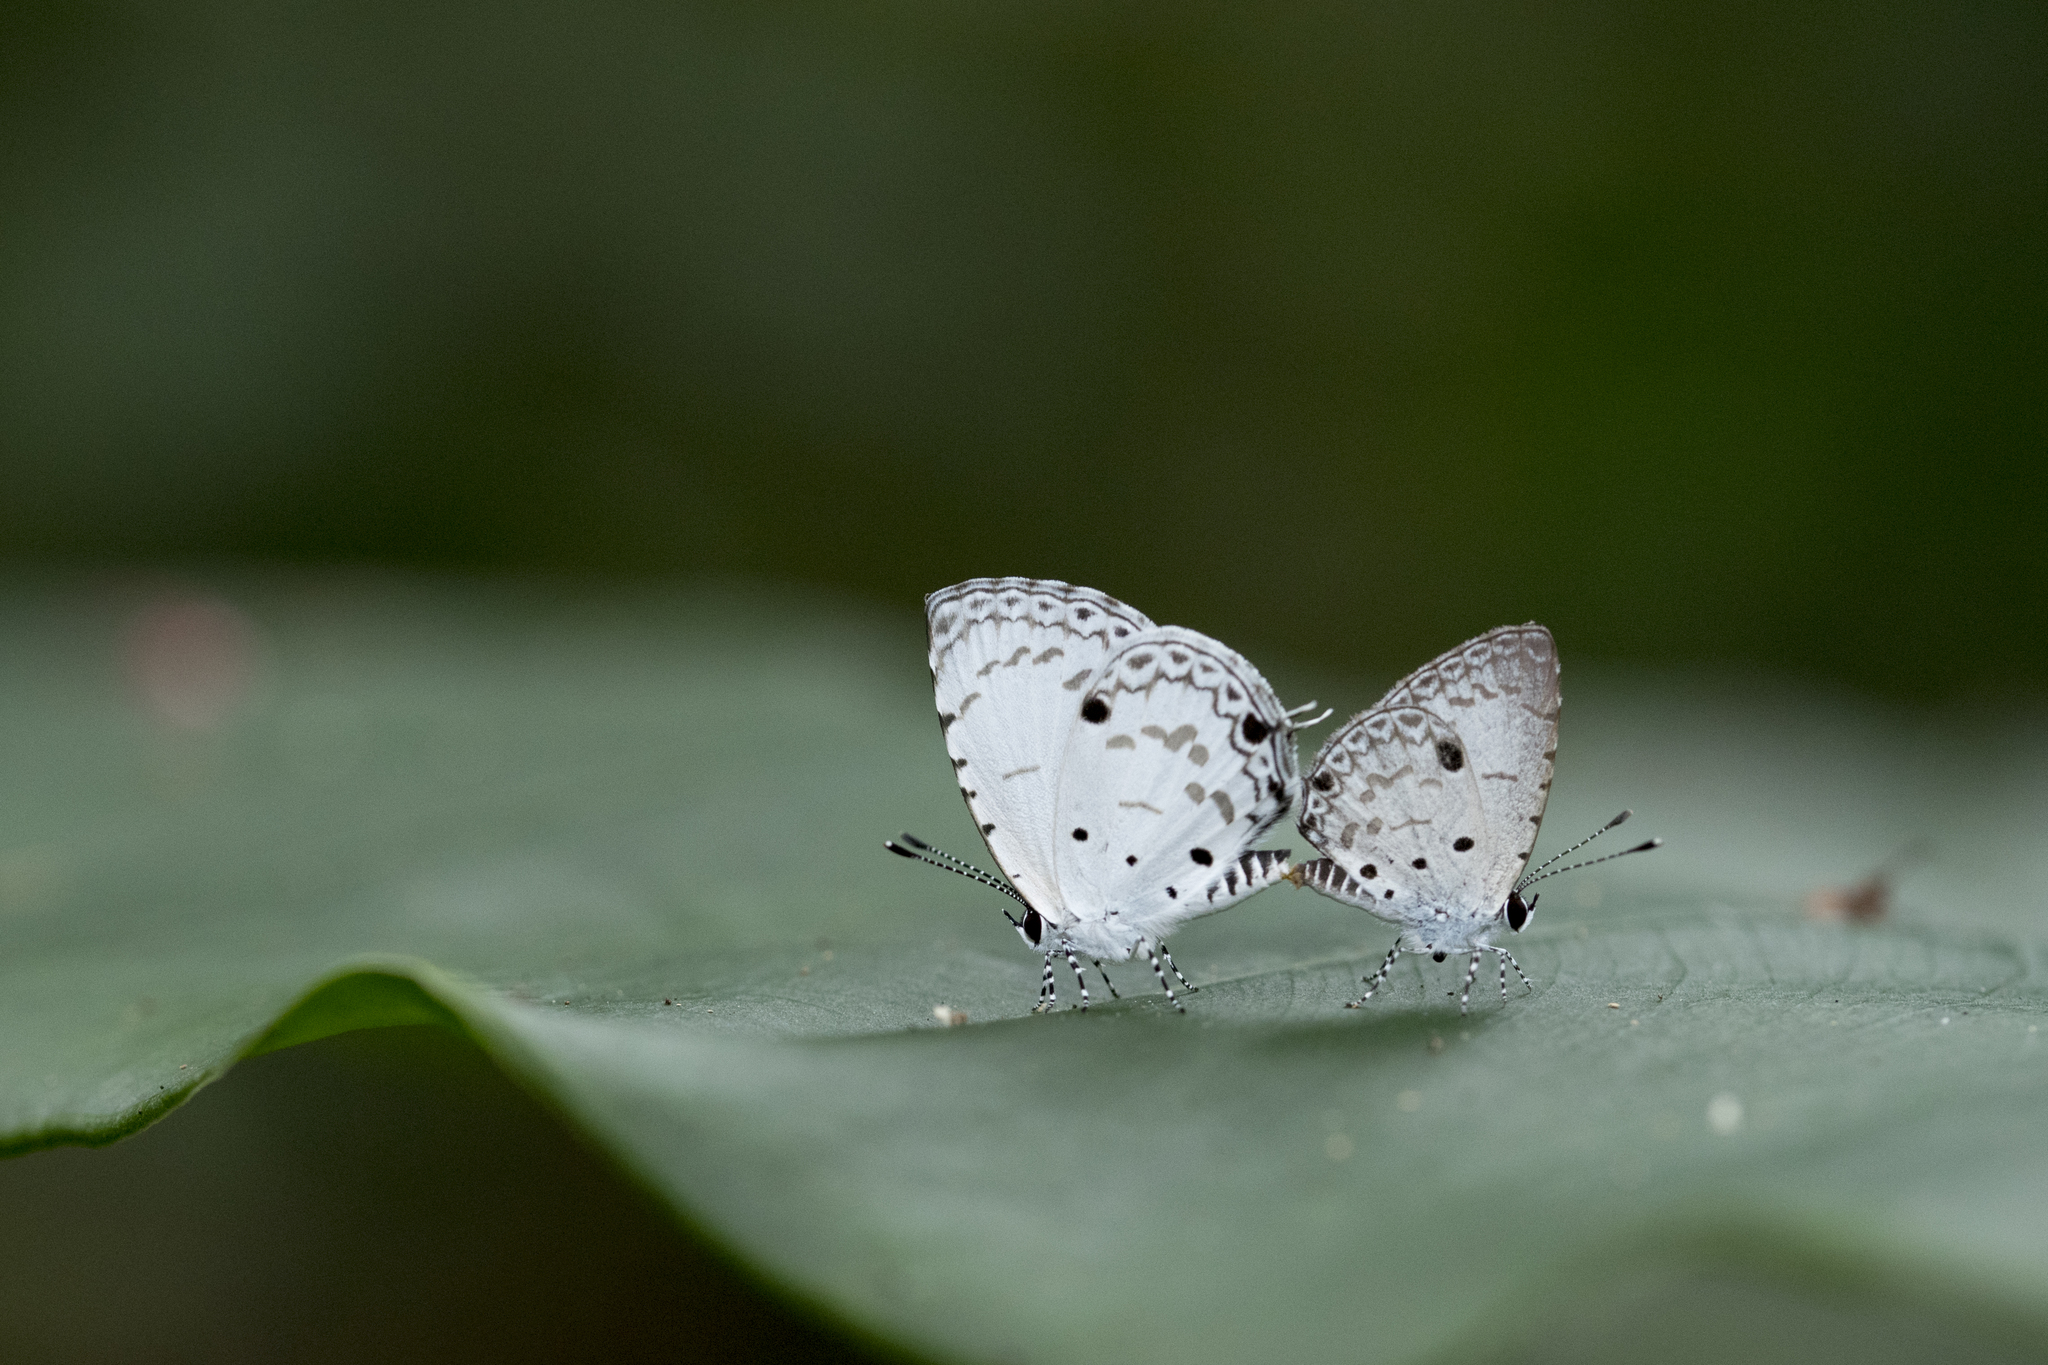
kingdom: Animalia
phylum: Arthropoda
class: Insecta
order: Lepidoptera
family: Lycaenidae
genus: Megisba
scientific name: Megisba malaya
